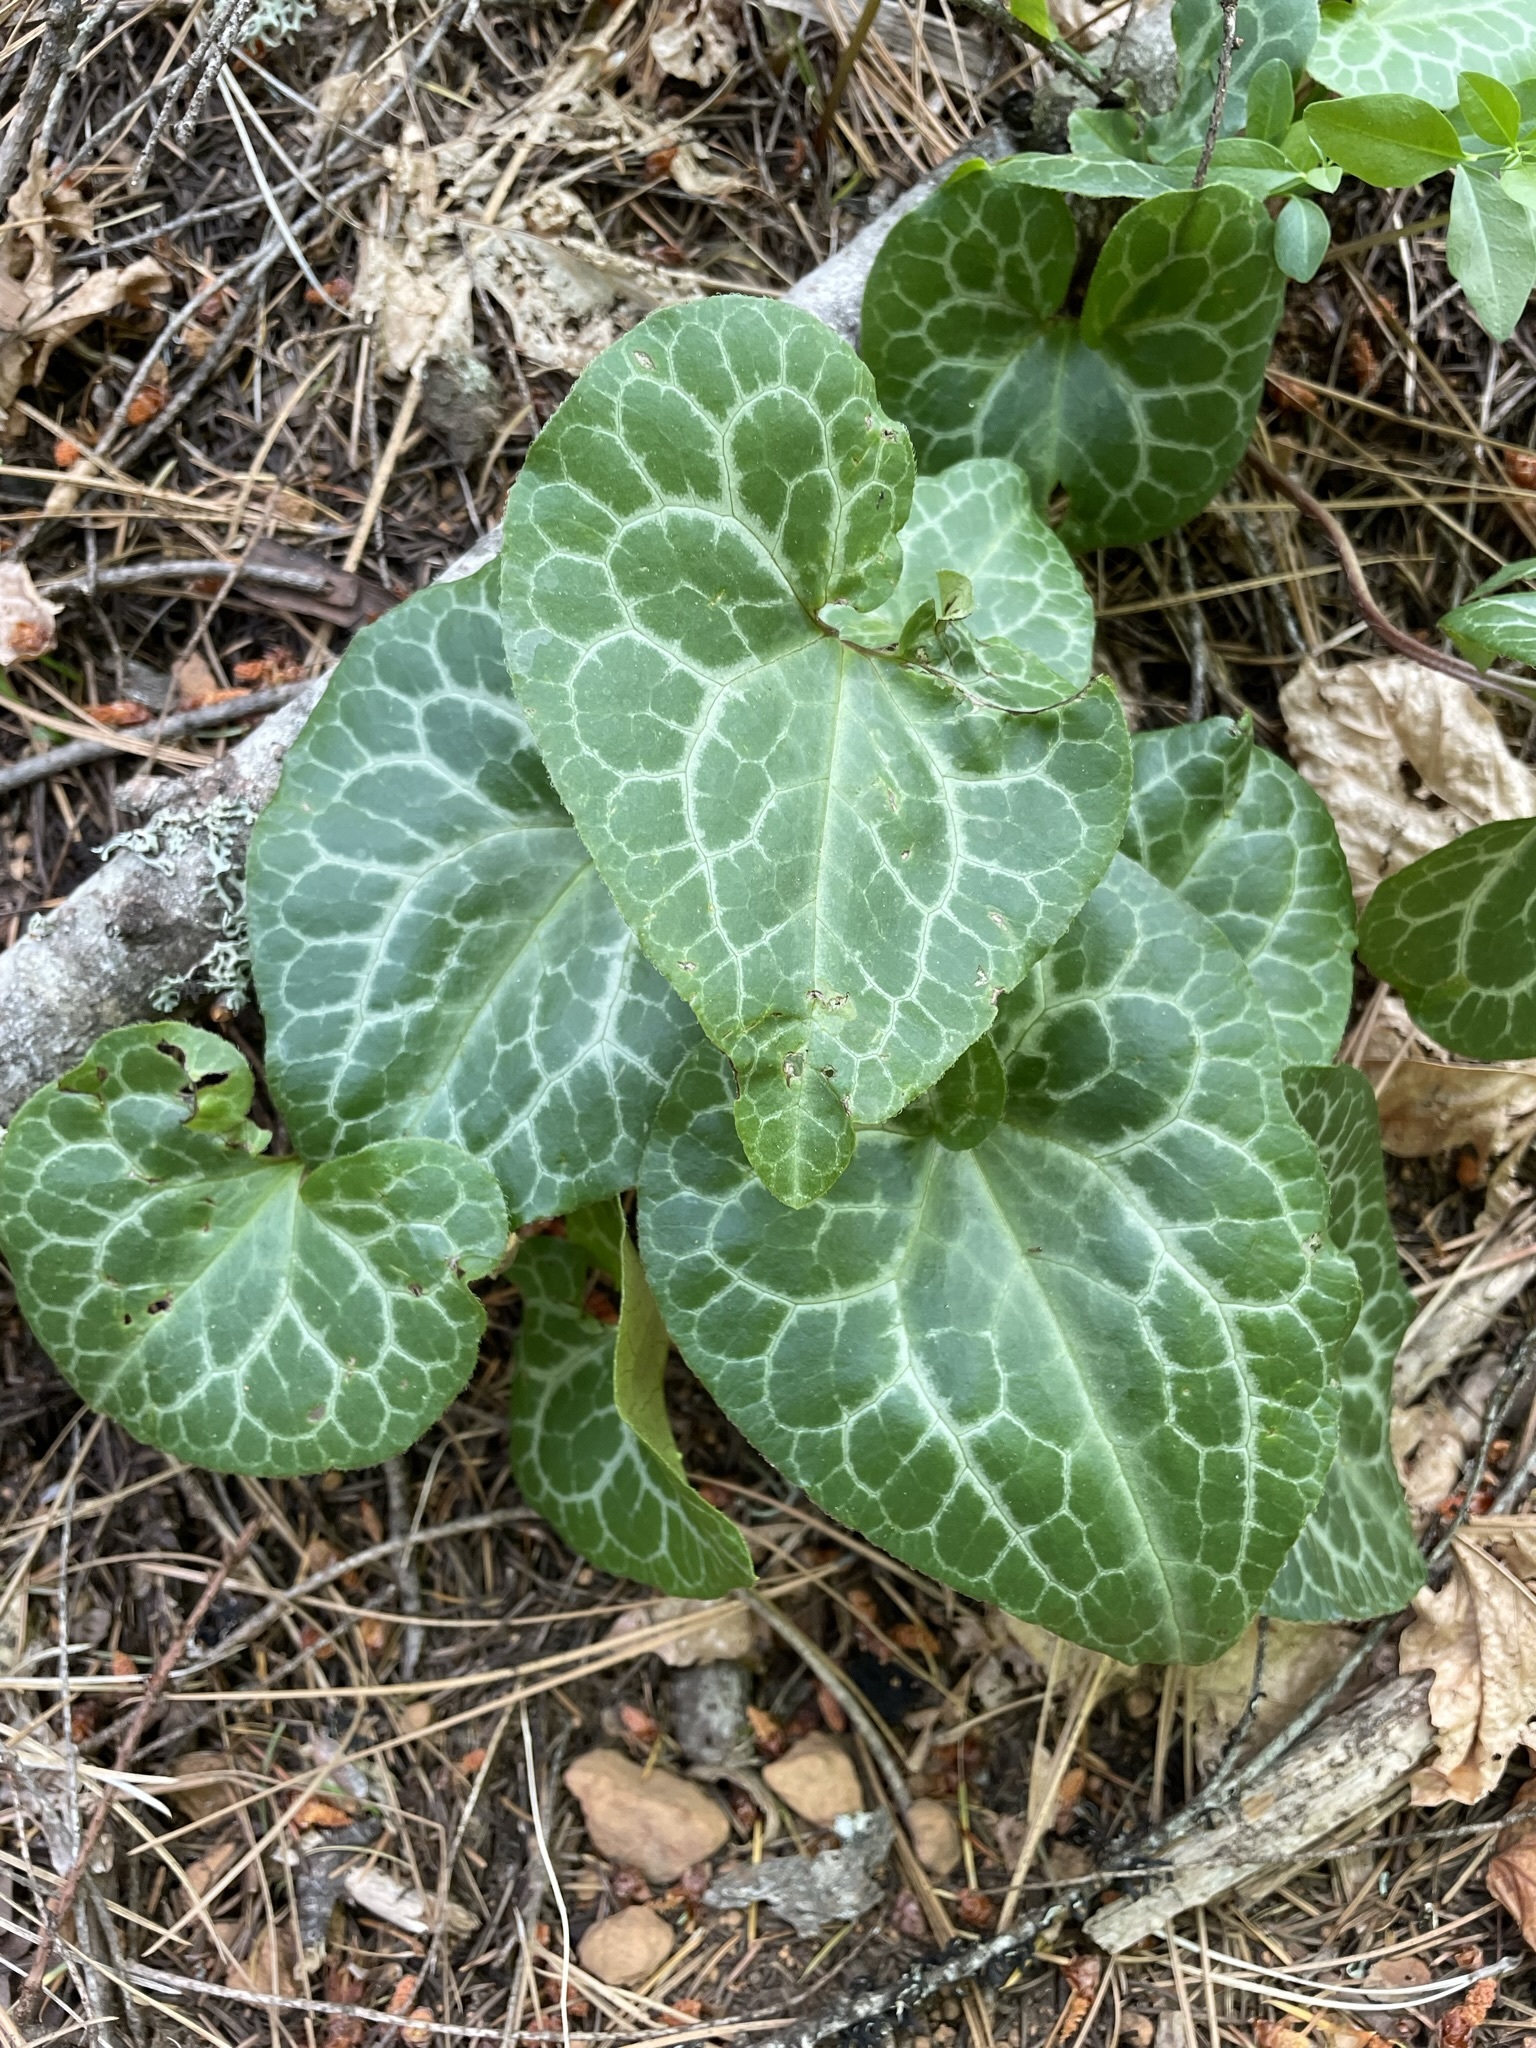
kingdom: Plantae
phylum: Tracheophyta
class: Magnoliopsida
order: Piperales
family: Aristolochiaceae
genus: Asarum
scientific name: Asarum hartwegii
